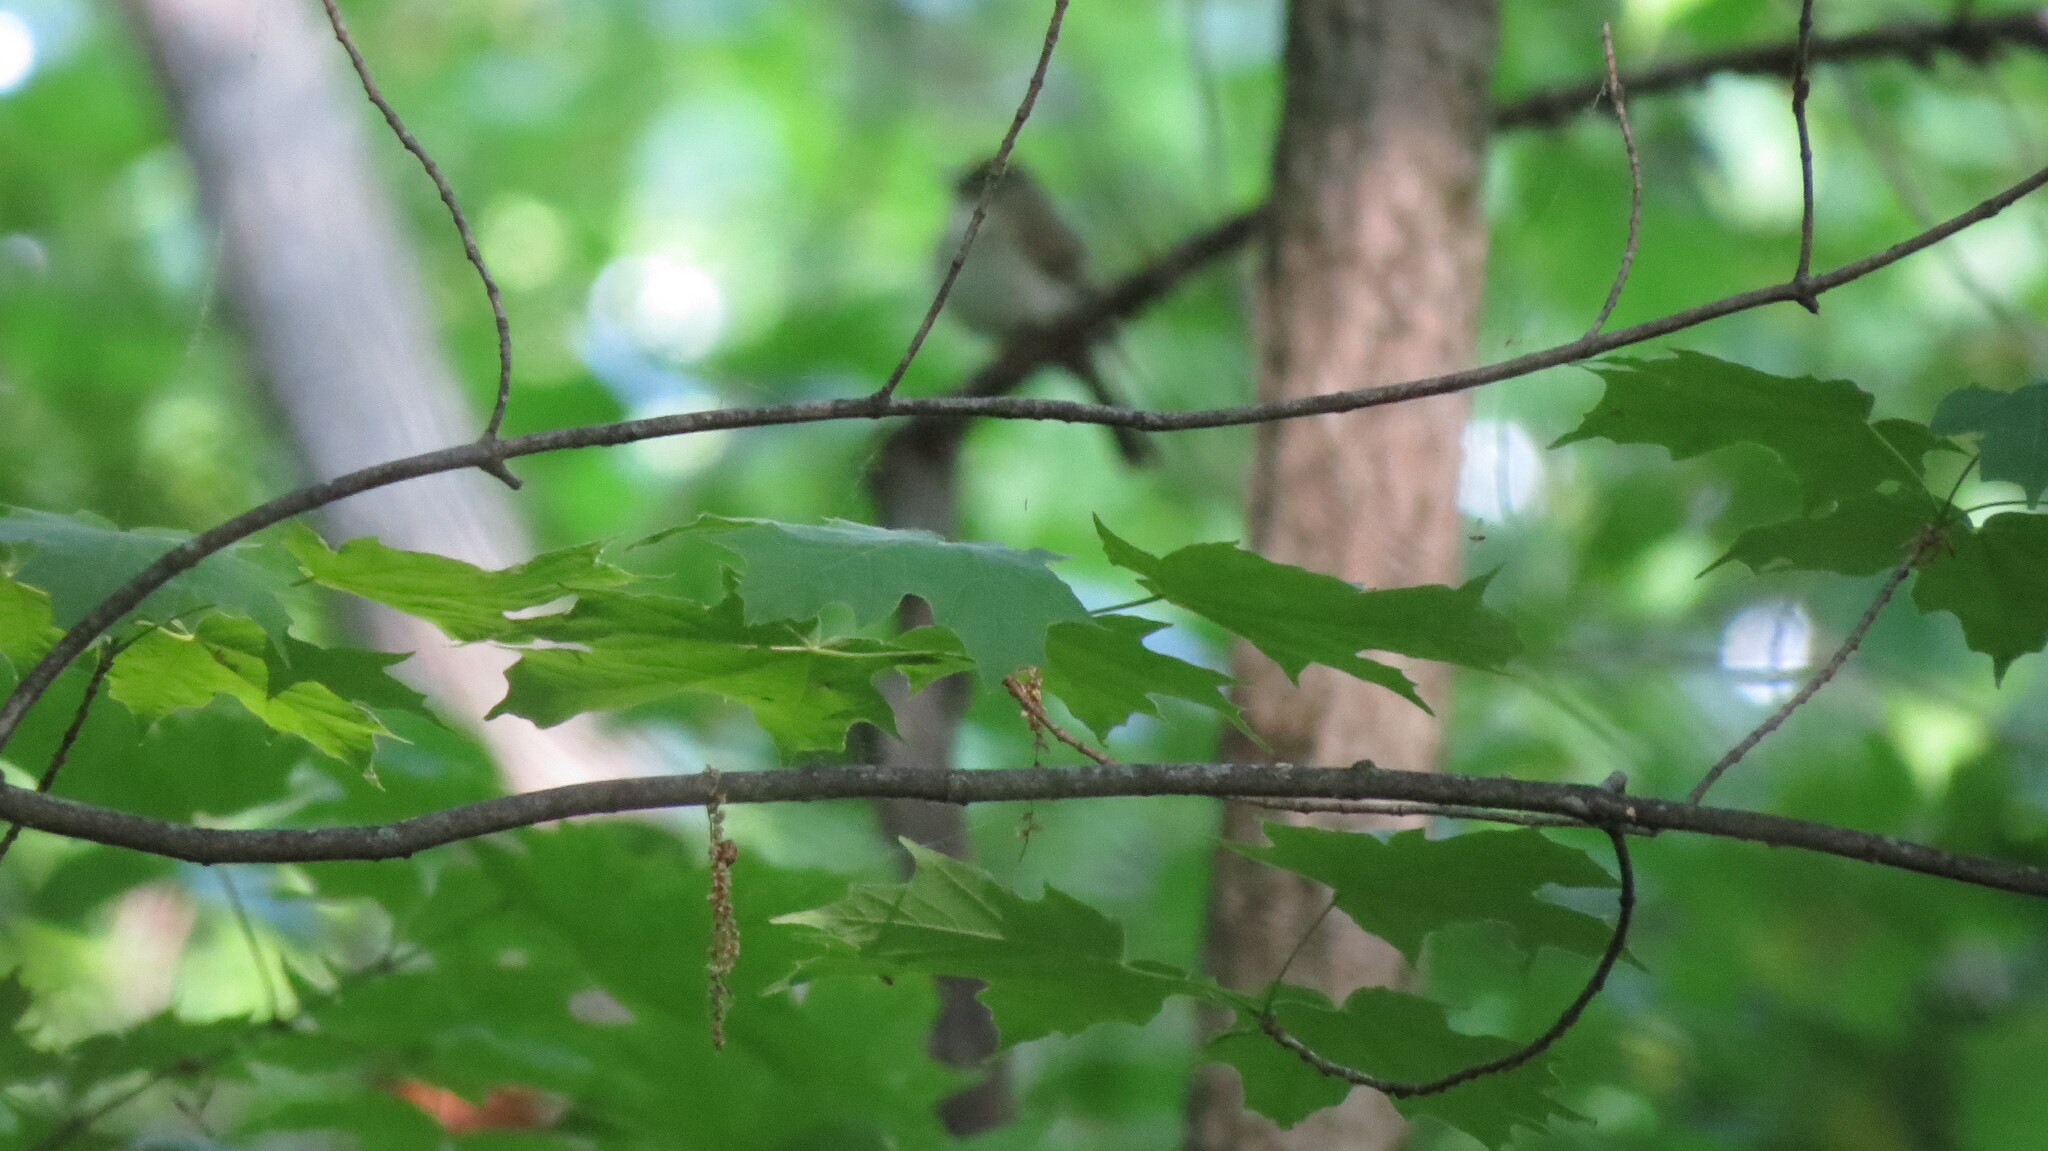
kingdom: Animalia
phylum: Chordata
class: Aves
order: Passeriformes
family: Tyrannidae
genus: Empidonax
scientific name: Empidonax virescens
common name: Acadian flycatcher
